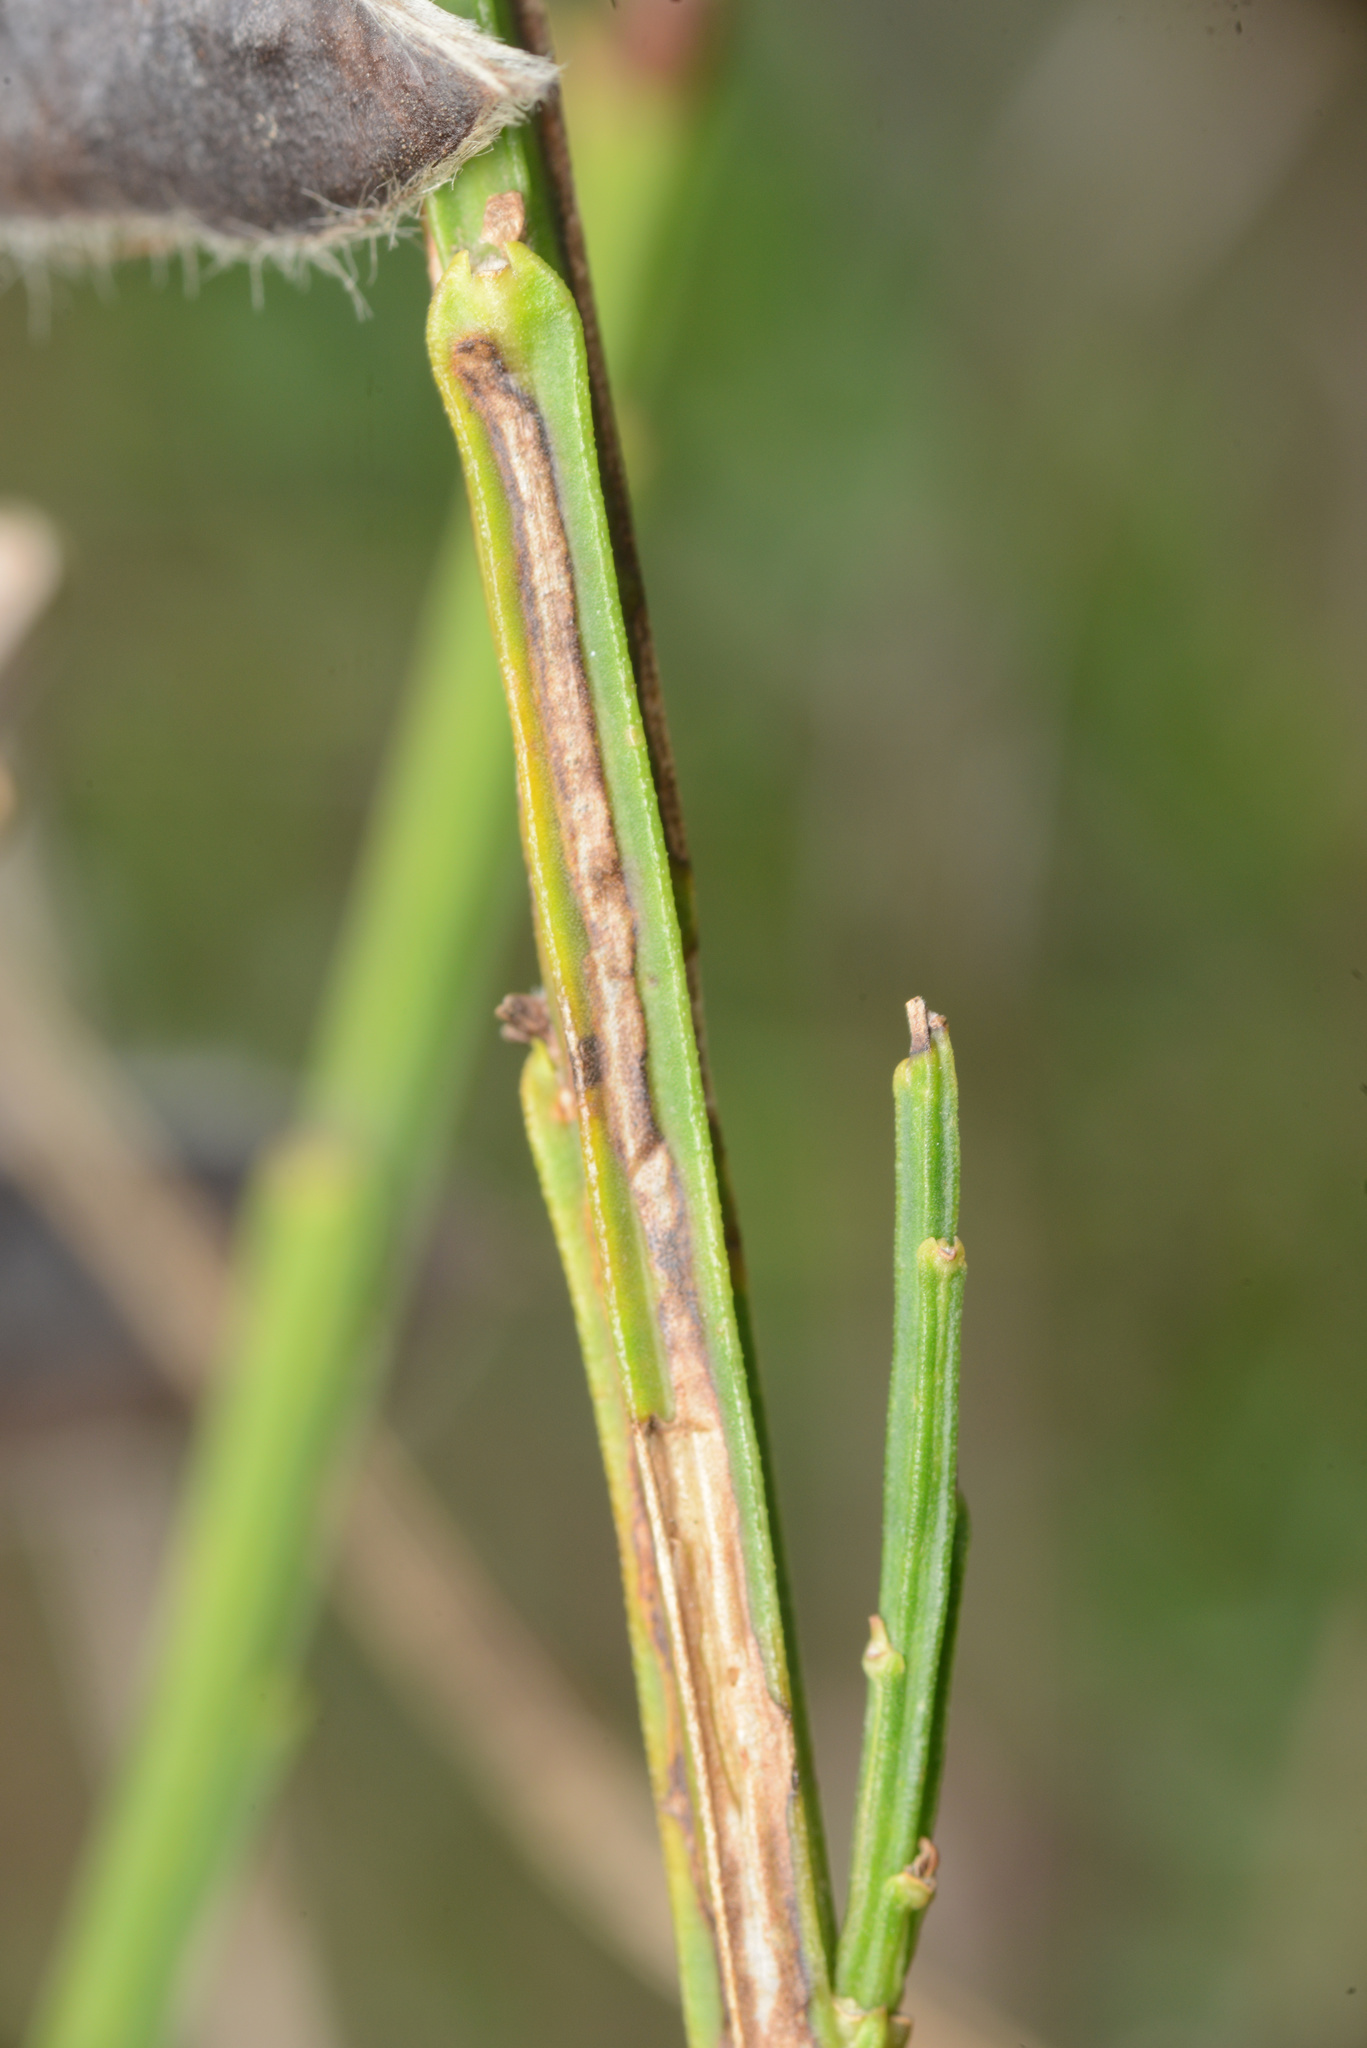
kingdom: Animalia
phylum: Arthropoda
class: Insecta
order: Lepidoptera
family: Lyonetiidae
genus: Leucoptera
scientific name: Leucoptera spartifoliella
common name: Scotch broom twig miner
